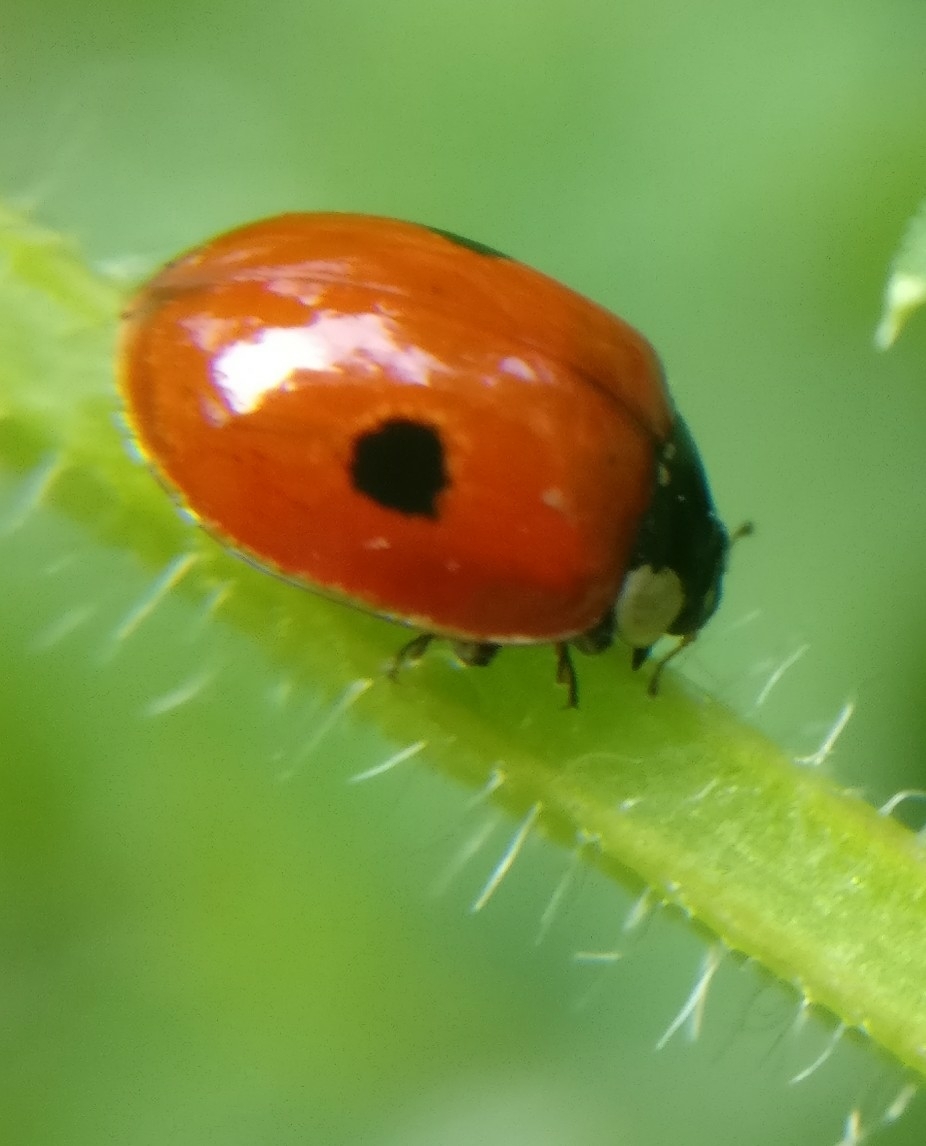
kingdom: Animalia
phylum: Arthropoda
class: Insecta
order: Coleoptera
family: Coccinellidae
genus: Adalia
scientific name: Adalia bipunctata
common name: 2-spot ladybird
